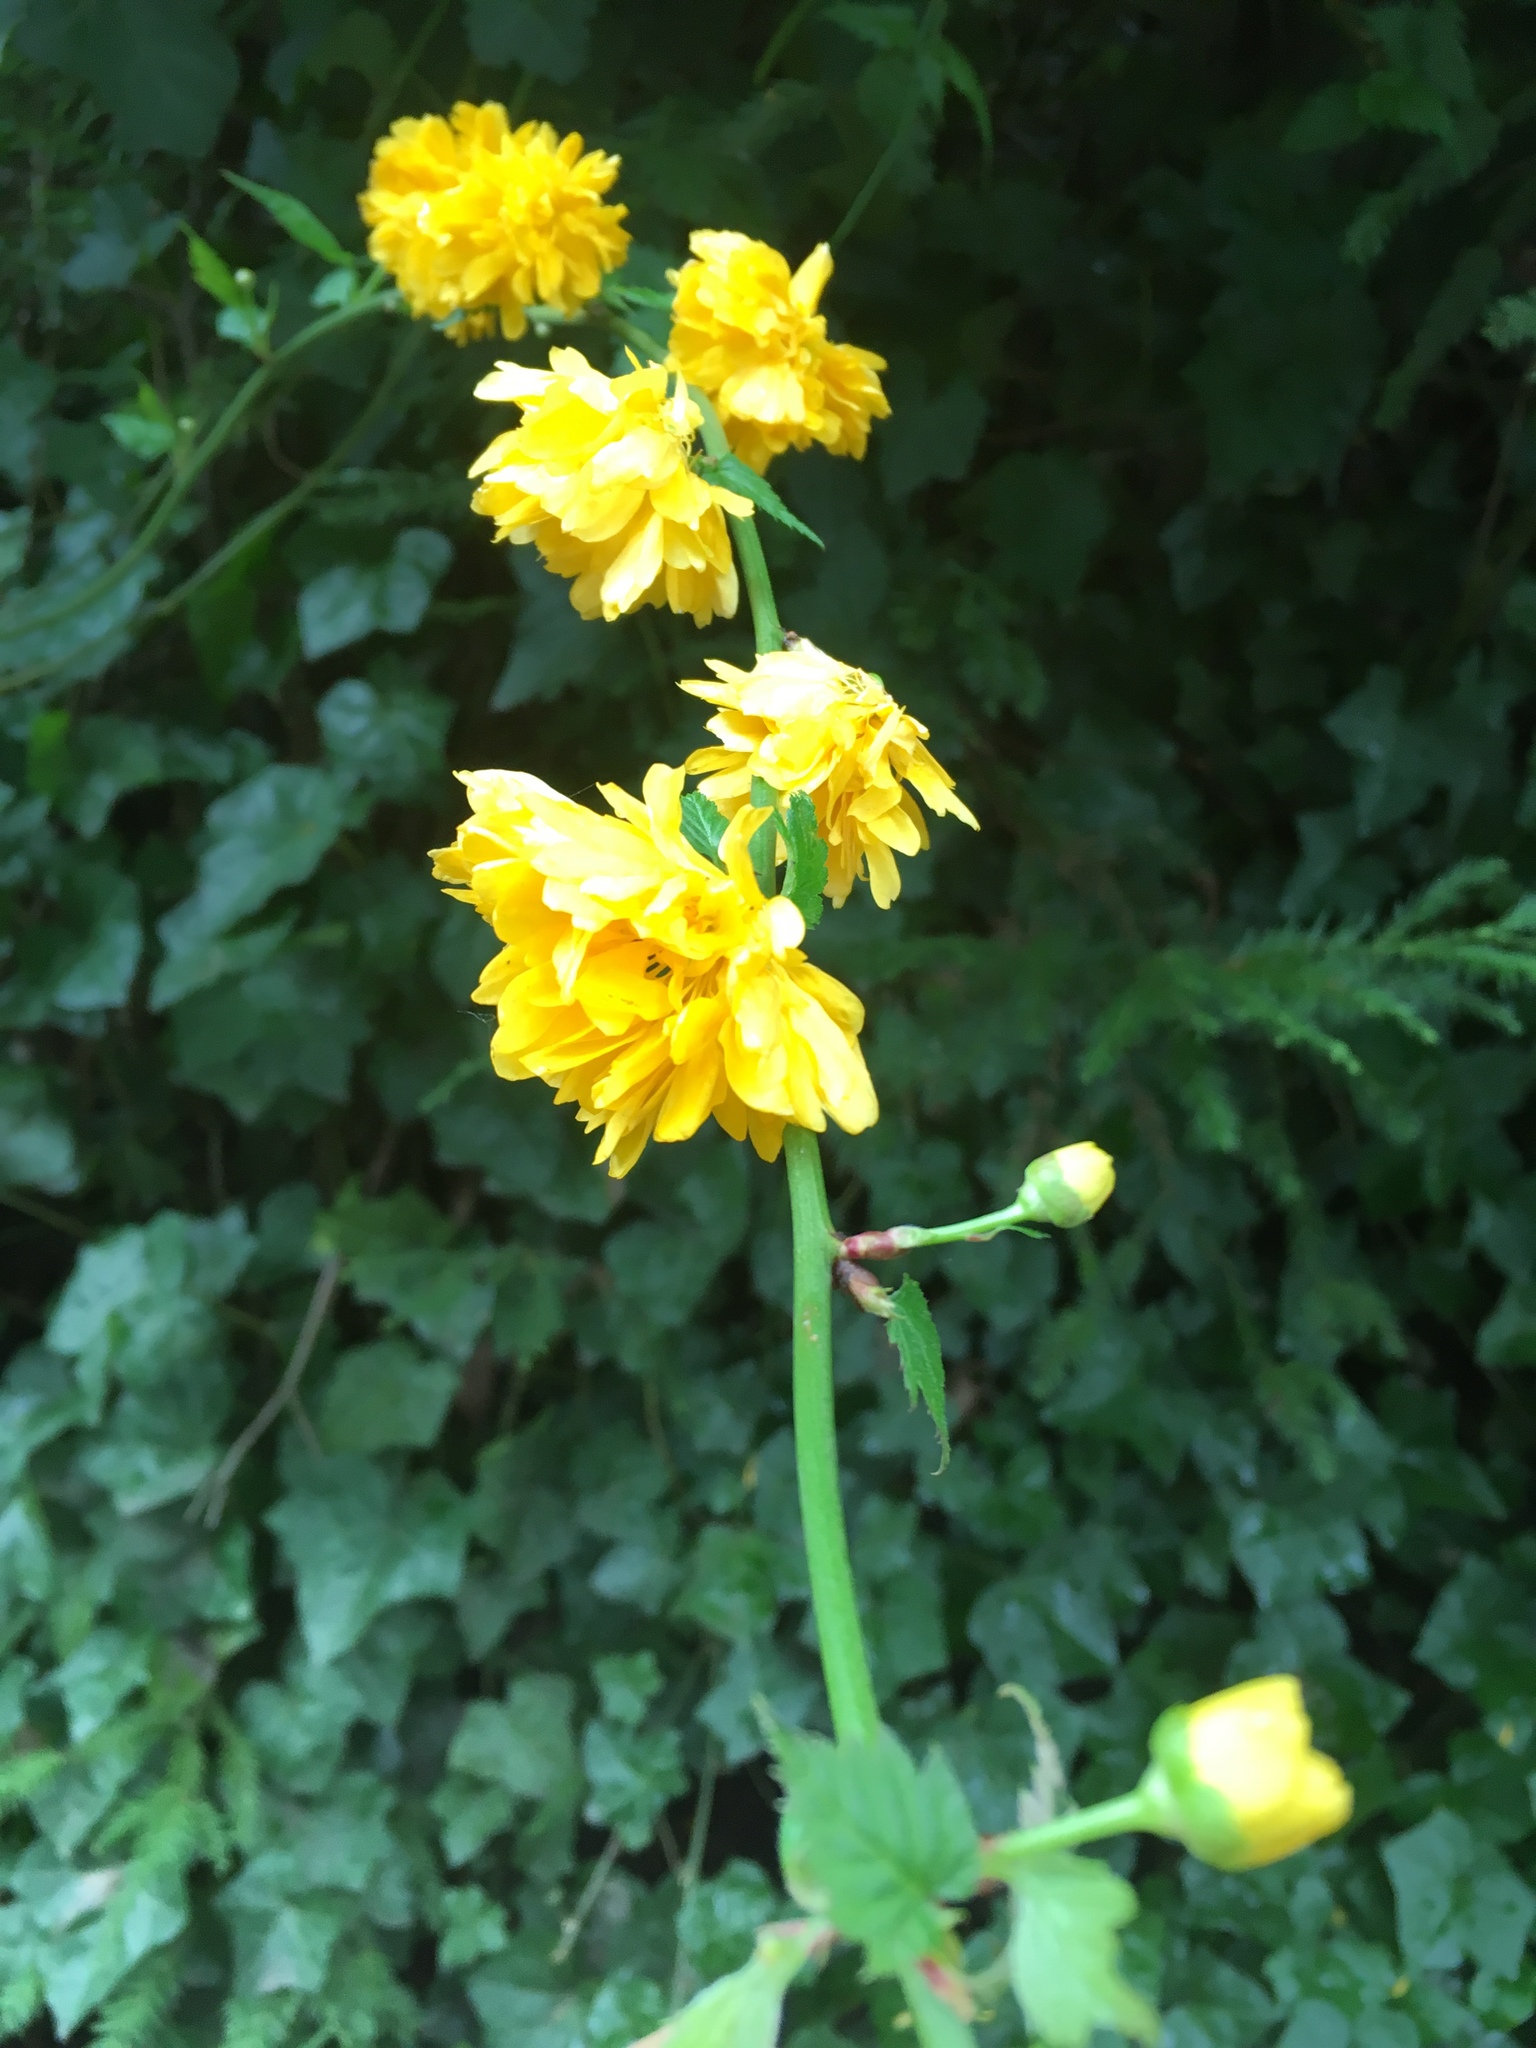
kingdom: Plantae
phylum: Tracheophyta
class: Magnoliopsida
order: Rosales
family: Rosaceae
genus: Kerria
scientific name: Kerria japonica
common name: Japanese kerria
